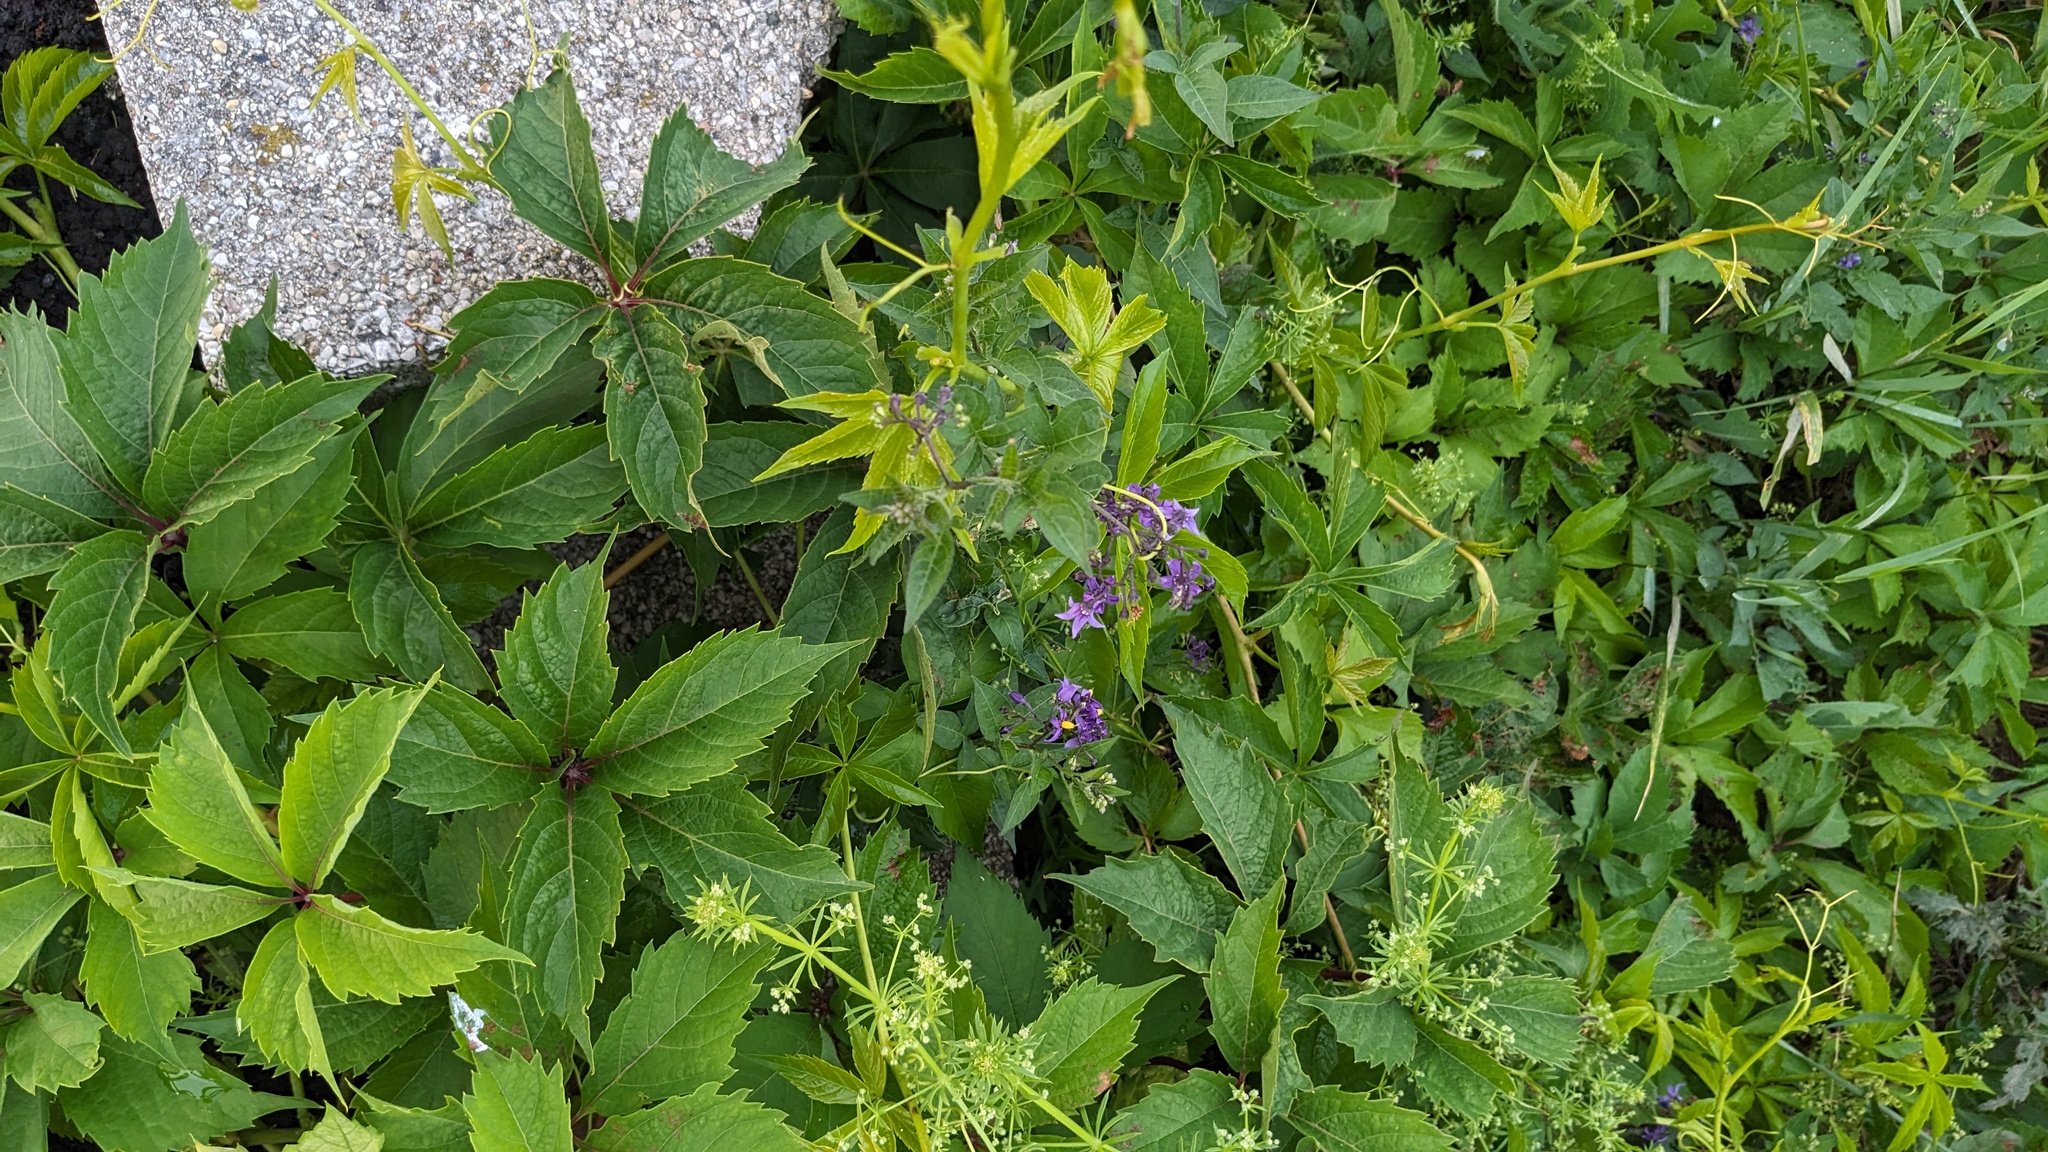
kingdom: Plantae
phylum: Tracheophyta
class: Magnoliopsida
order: Solanales
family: Solanaceae
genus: Solanum
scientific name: Solanum dulcamara
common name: Climbing nightshade
